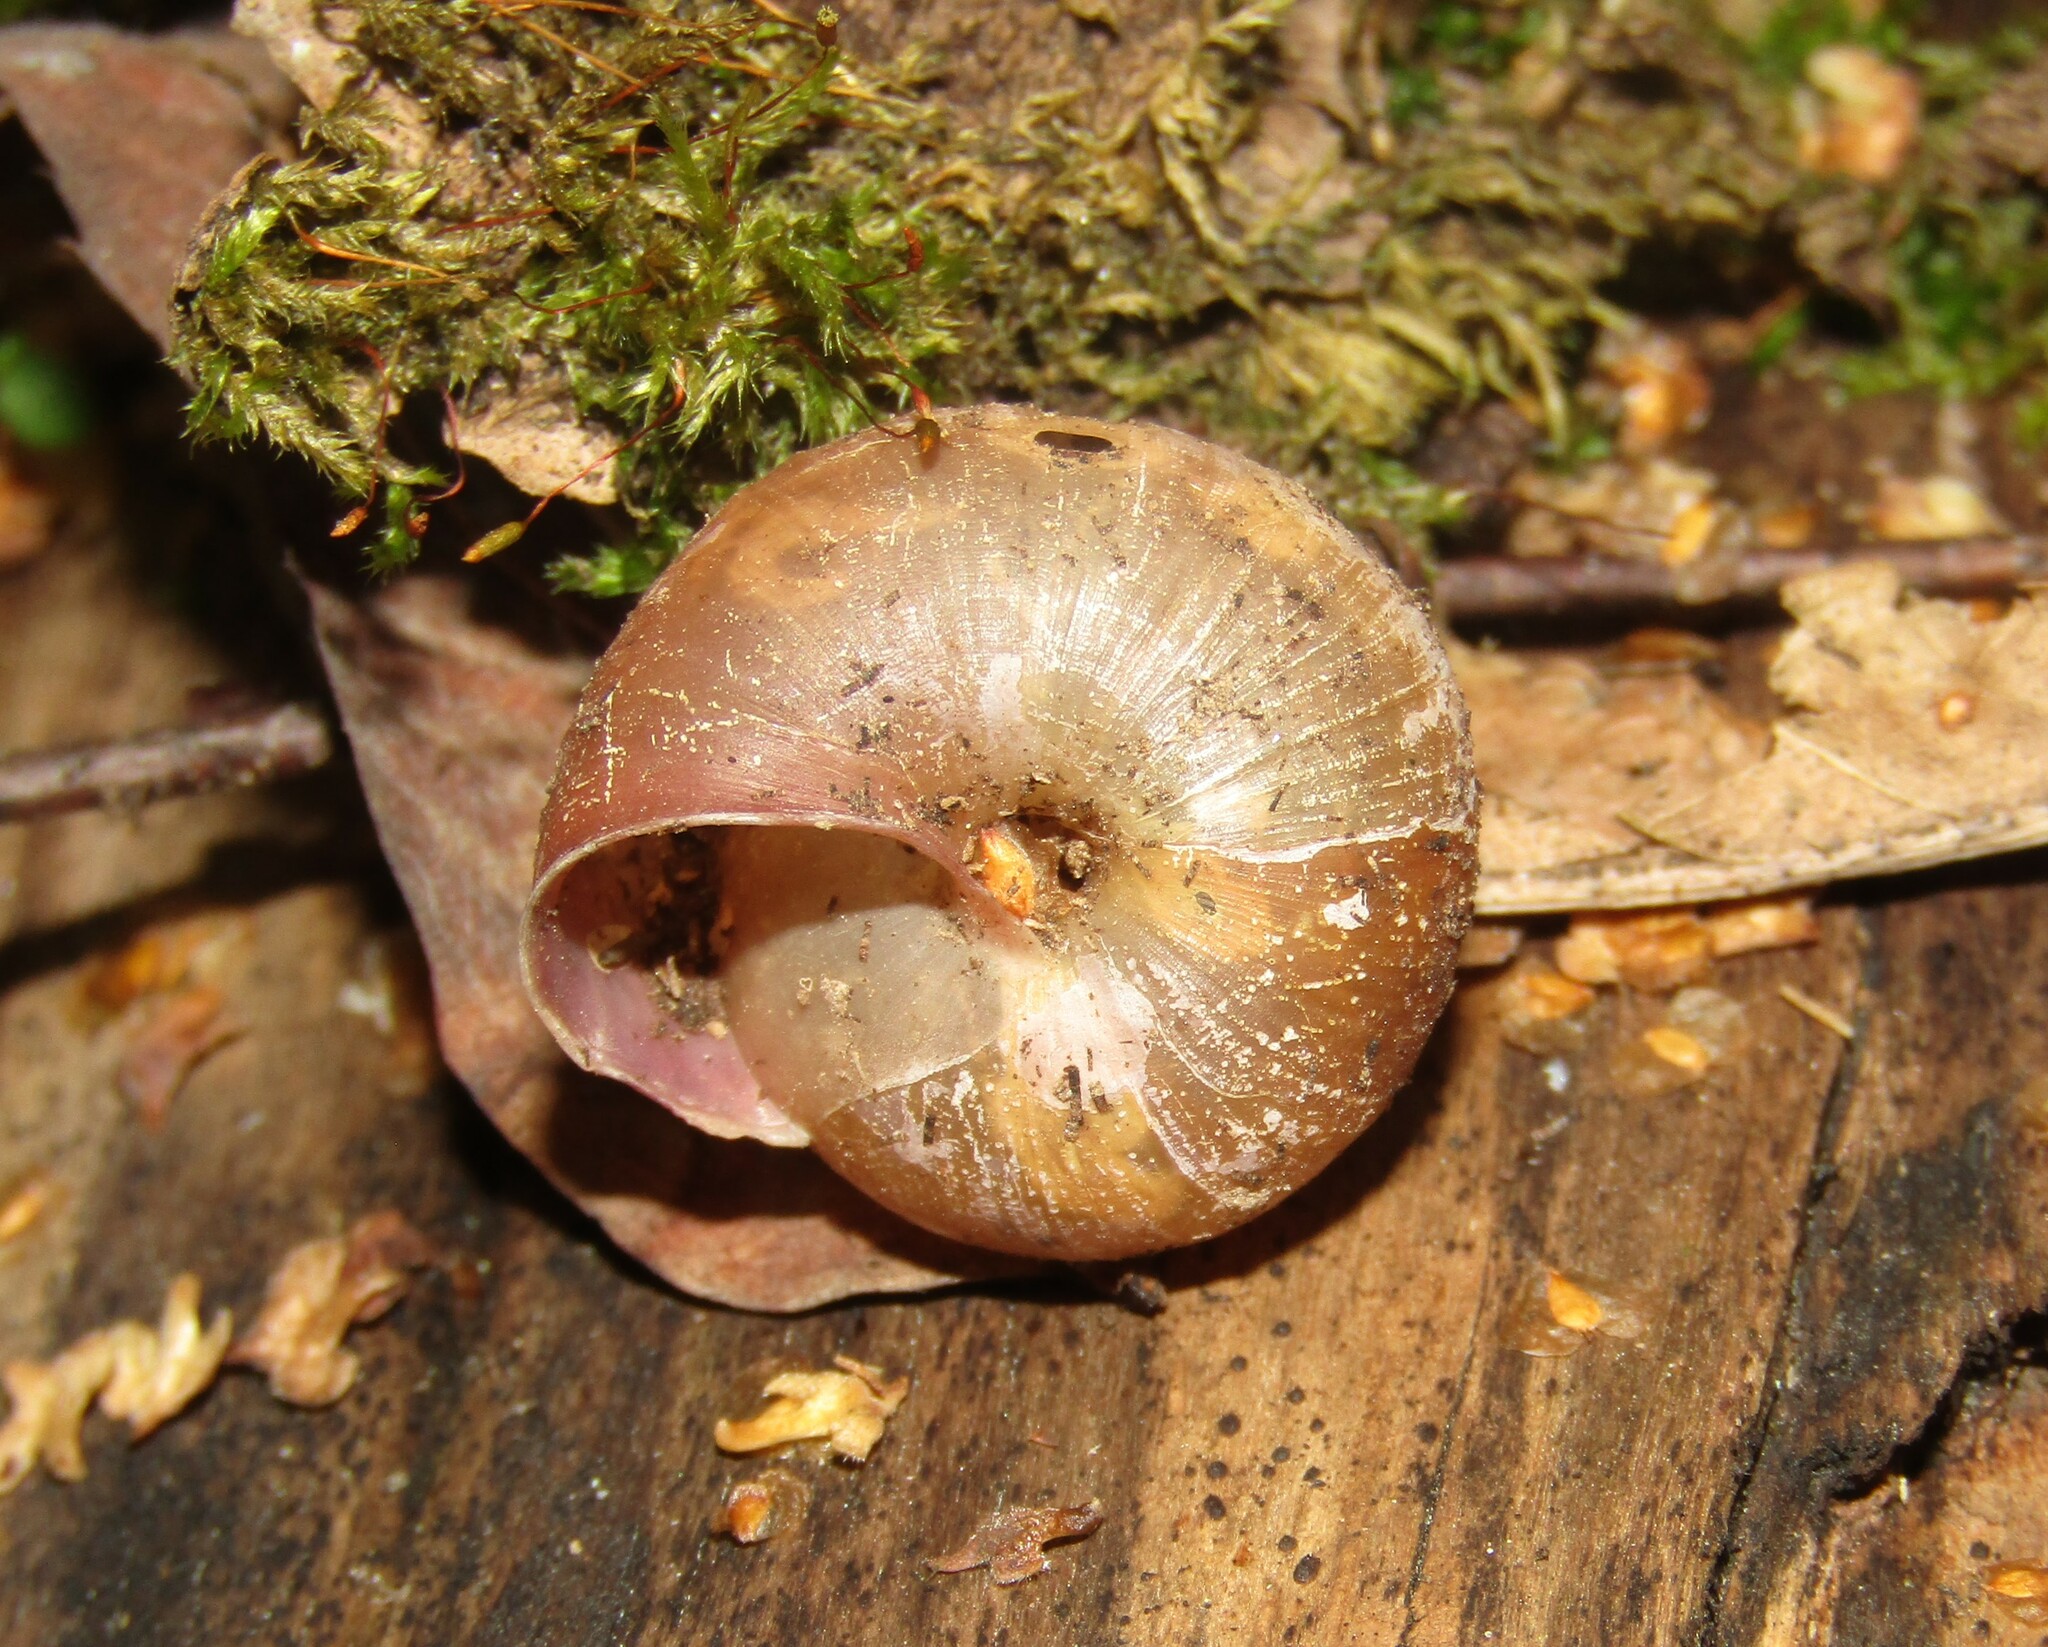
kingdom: Animalia
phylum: Mollusca
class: Gastropoda
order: Stylommatophora
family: Camaenidae
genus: Fruticicola
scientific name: Fruticicola fruticum
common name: Bush snail
